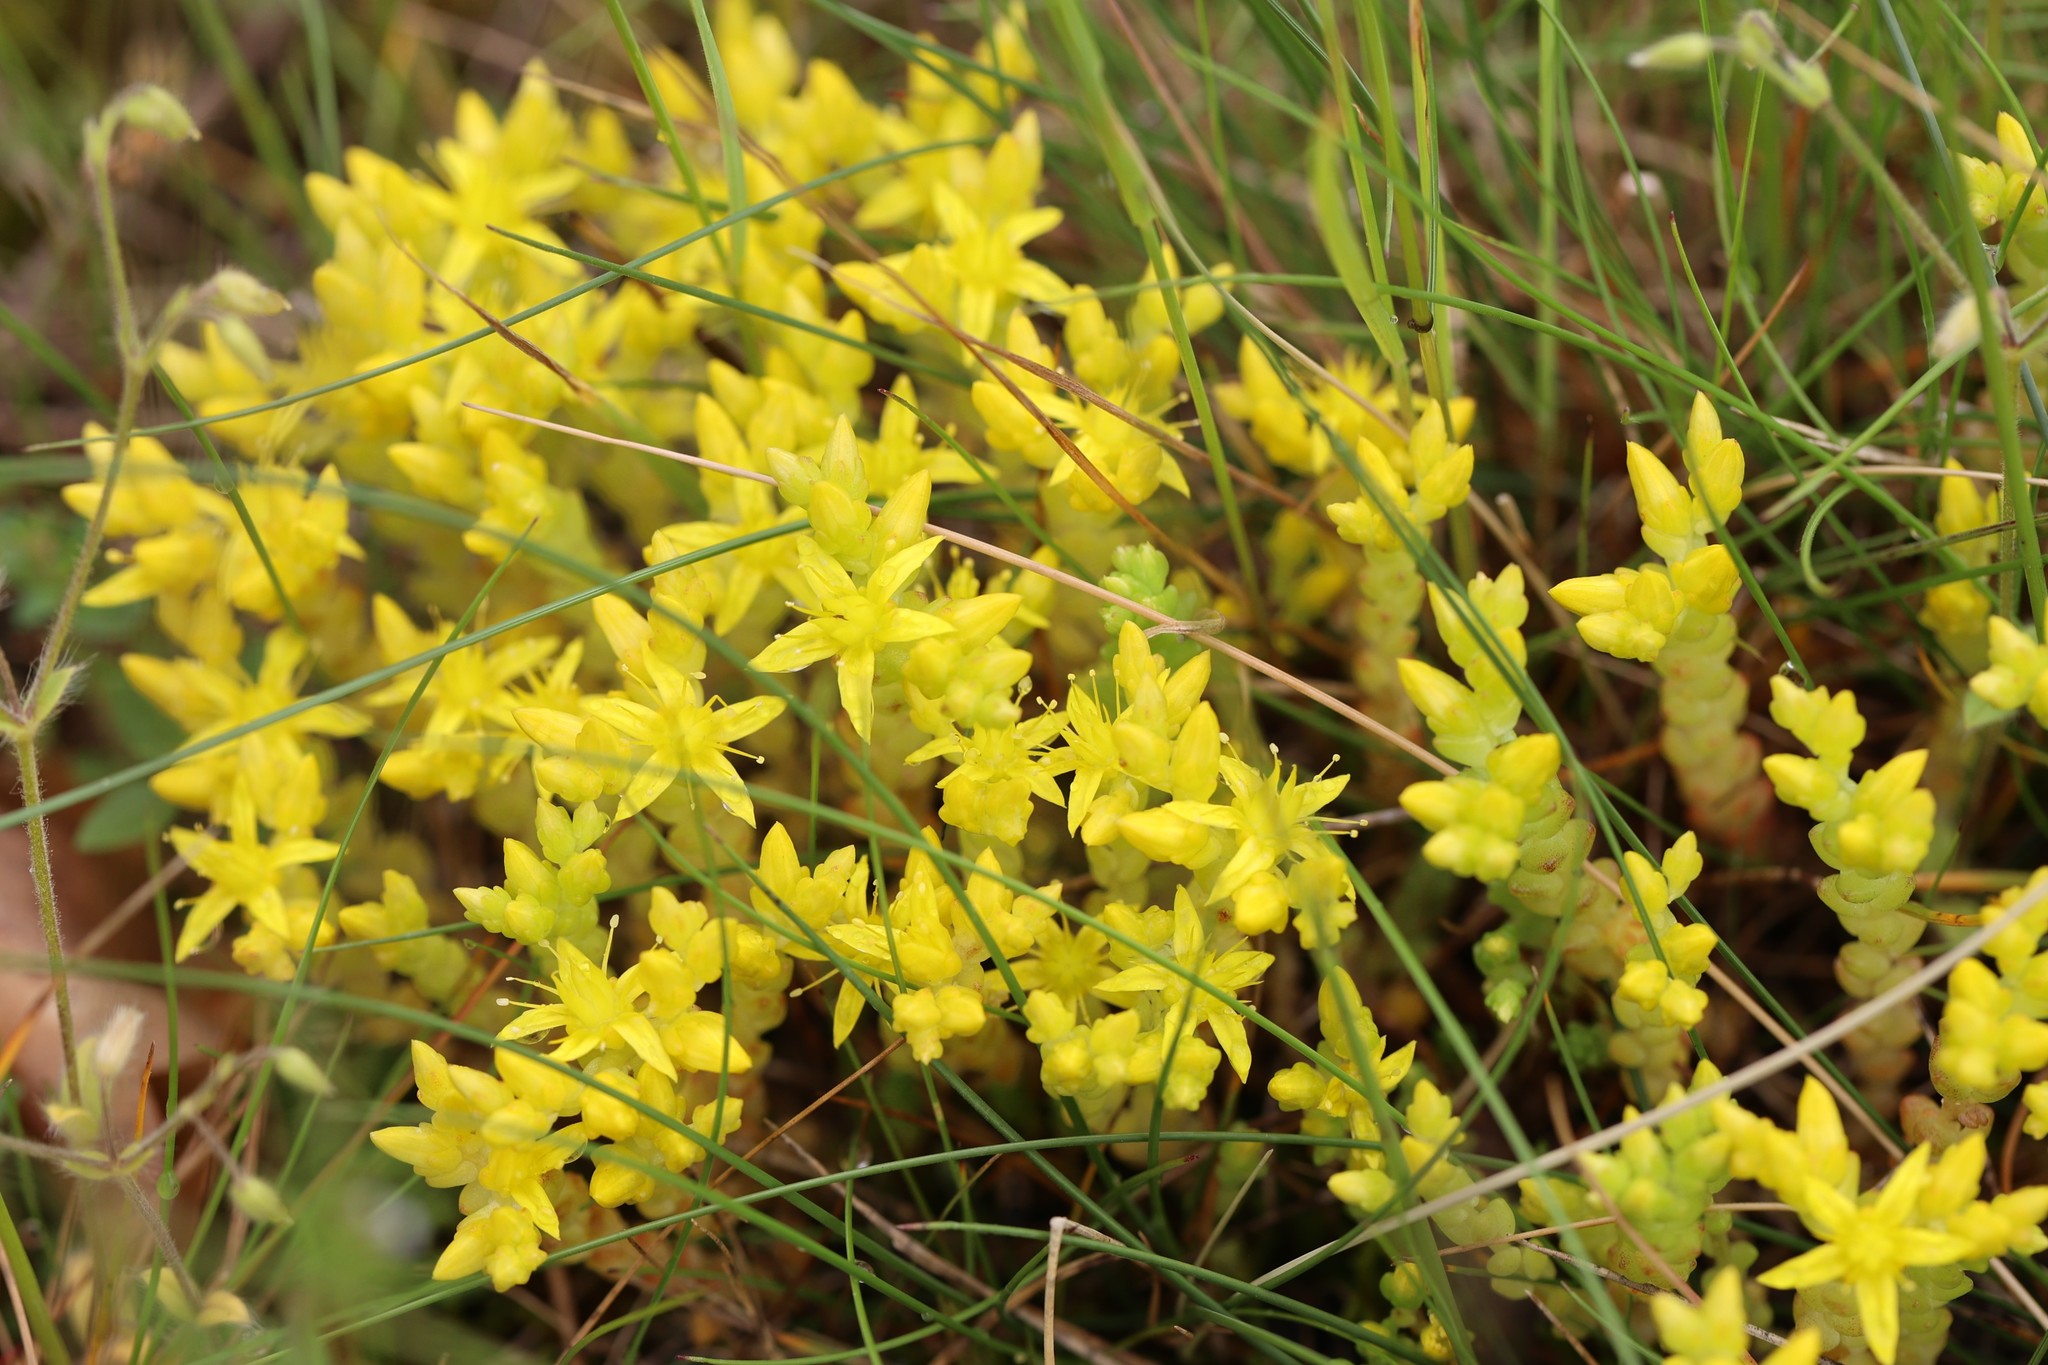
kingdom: Plantae
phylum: Tracheophyta
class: Magnoliopsida
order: Saxifragales
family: Crassulaceae
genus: Sedum
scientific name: Sedum acre
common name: Biting stonecrop
